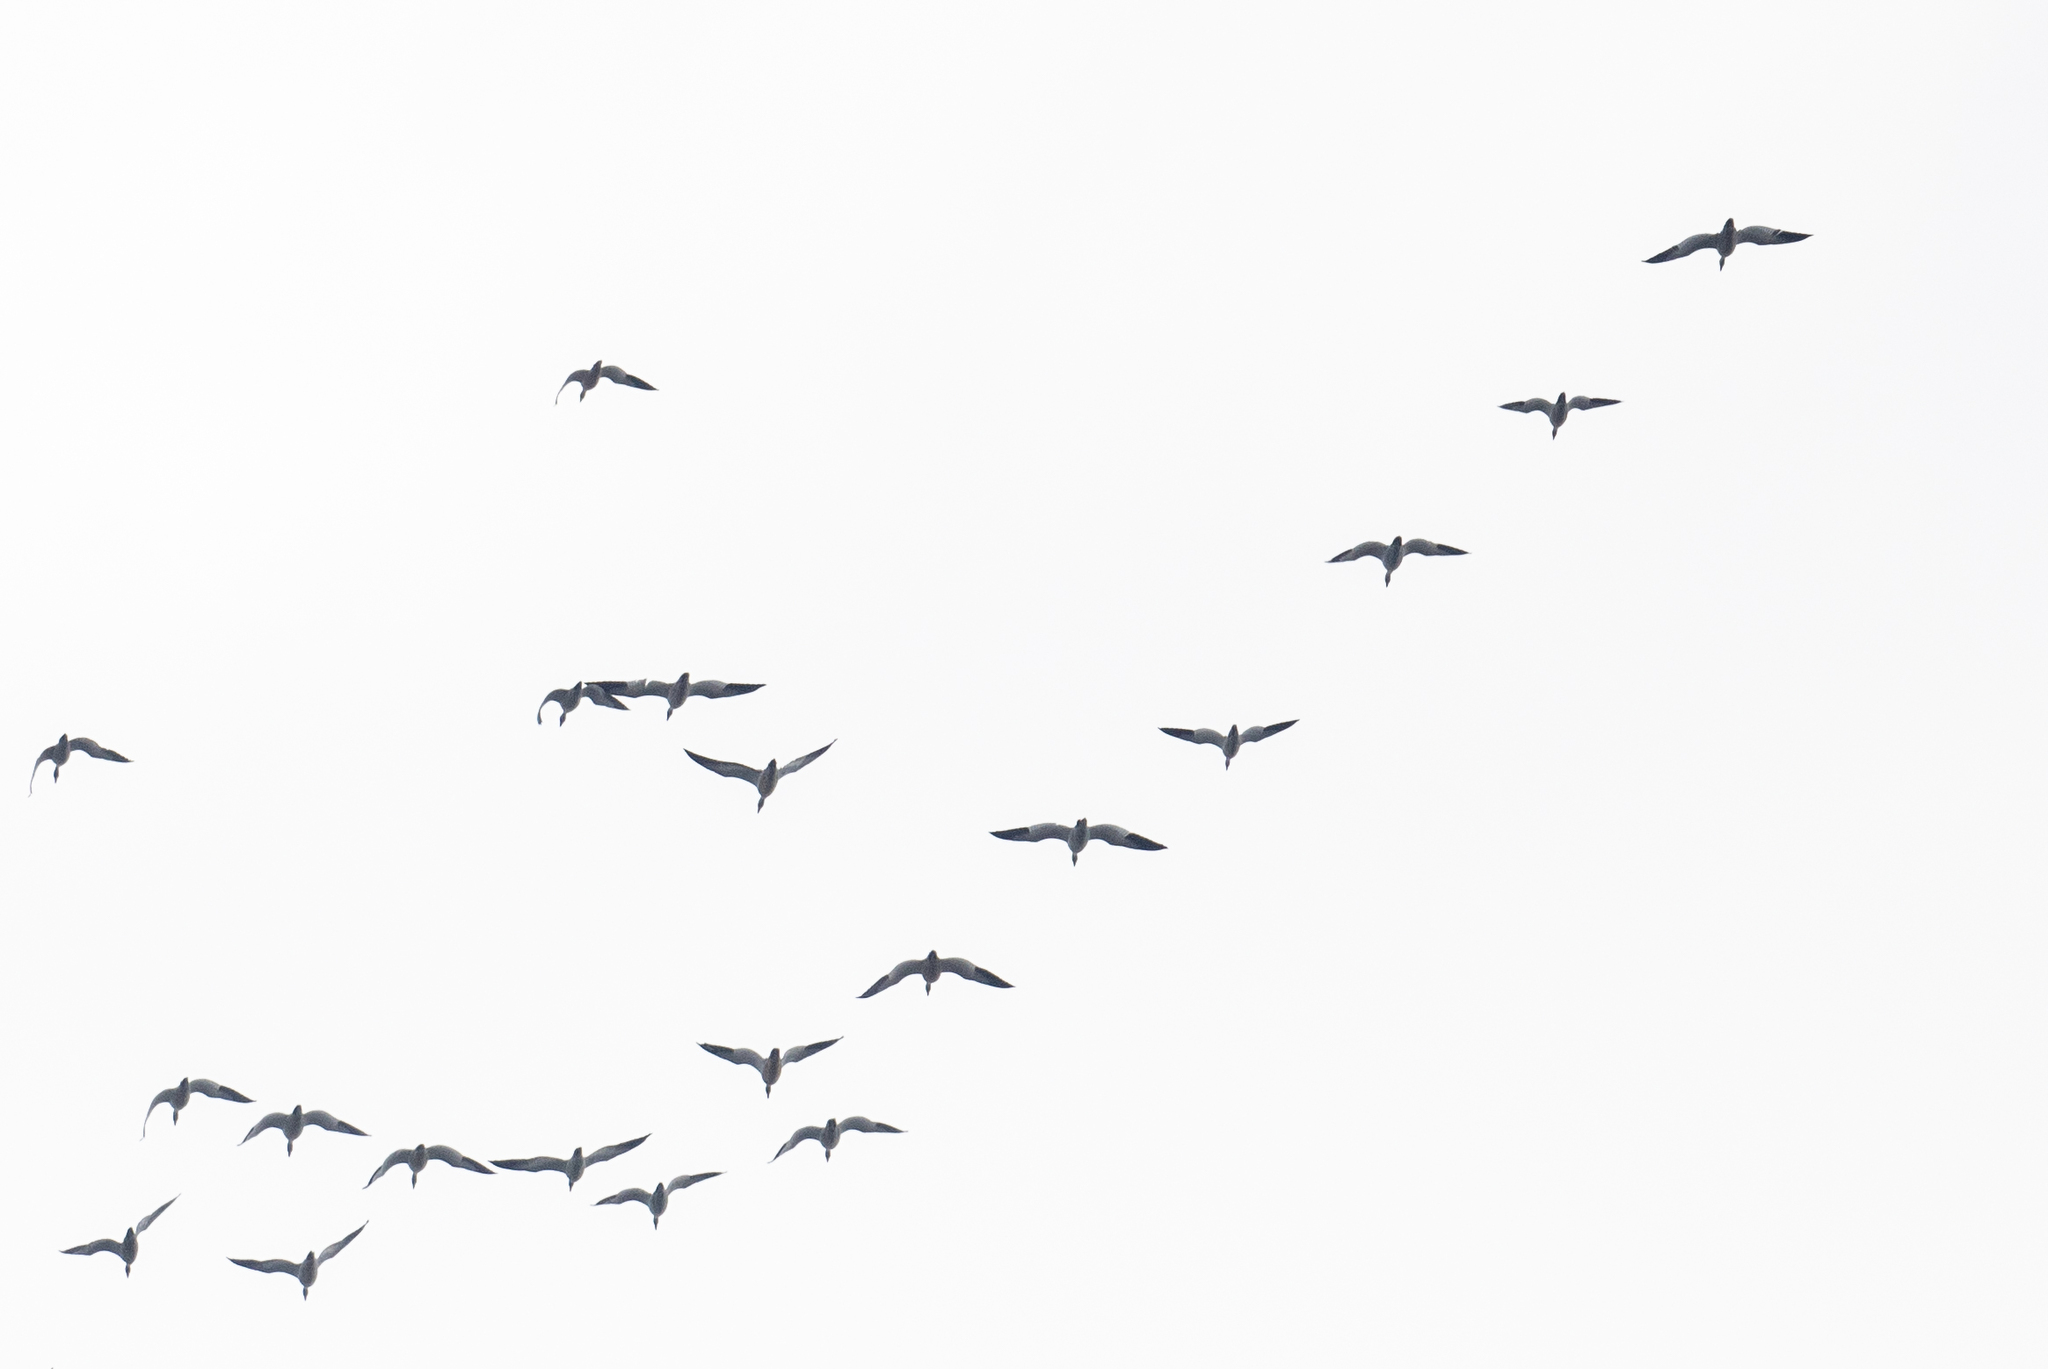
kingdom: Animalia
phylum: Chordata
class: Aves
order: Anseriformes
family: Anatidae
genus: Anser
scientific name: Anser caerulescens
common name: Snow goose
